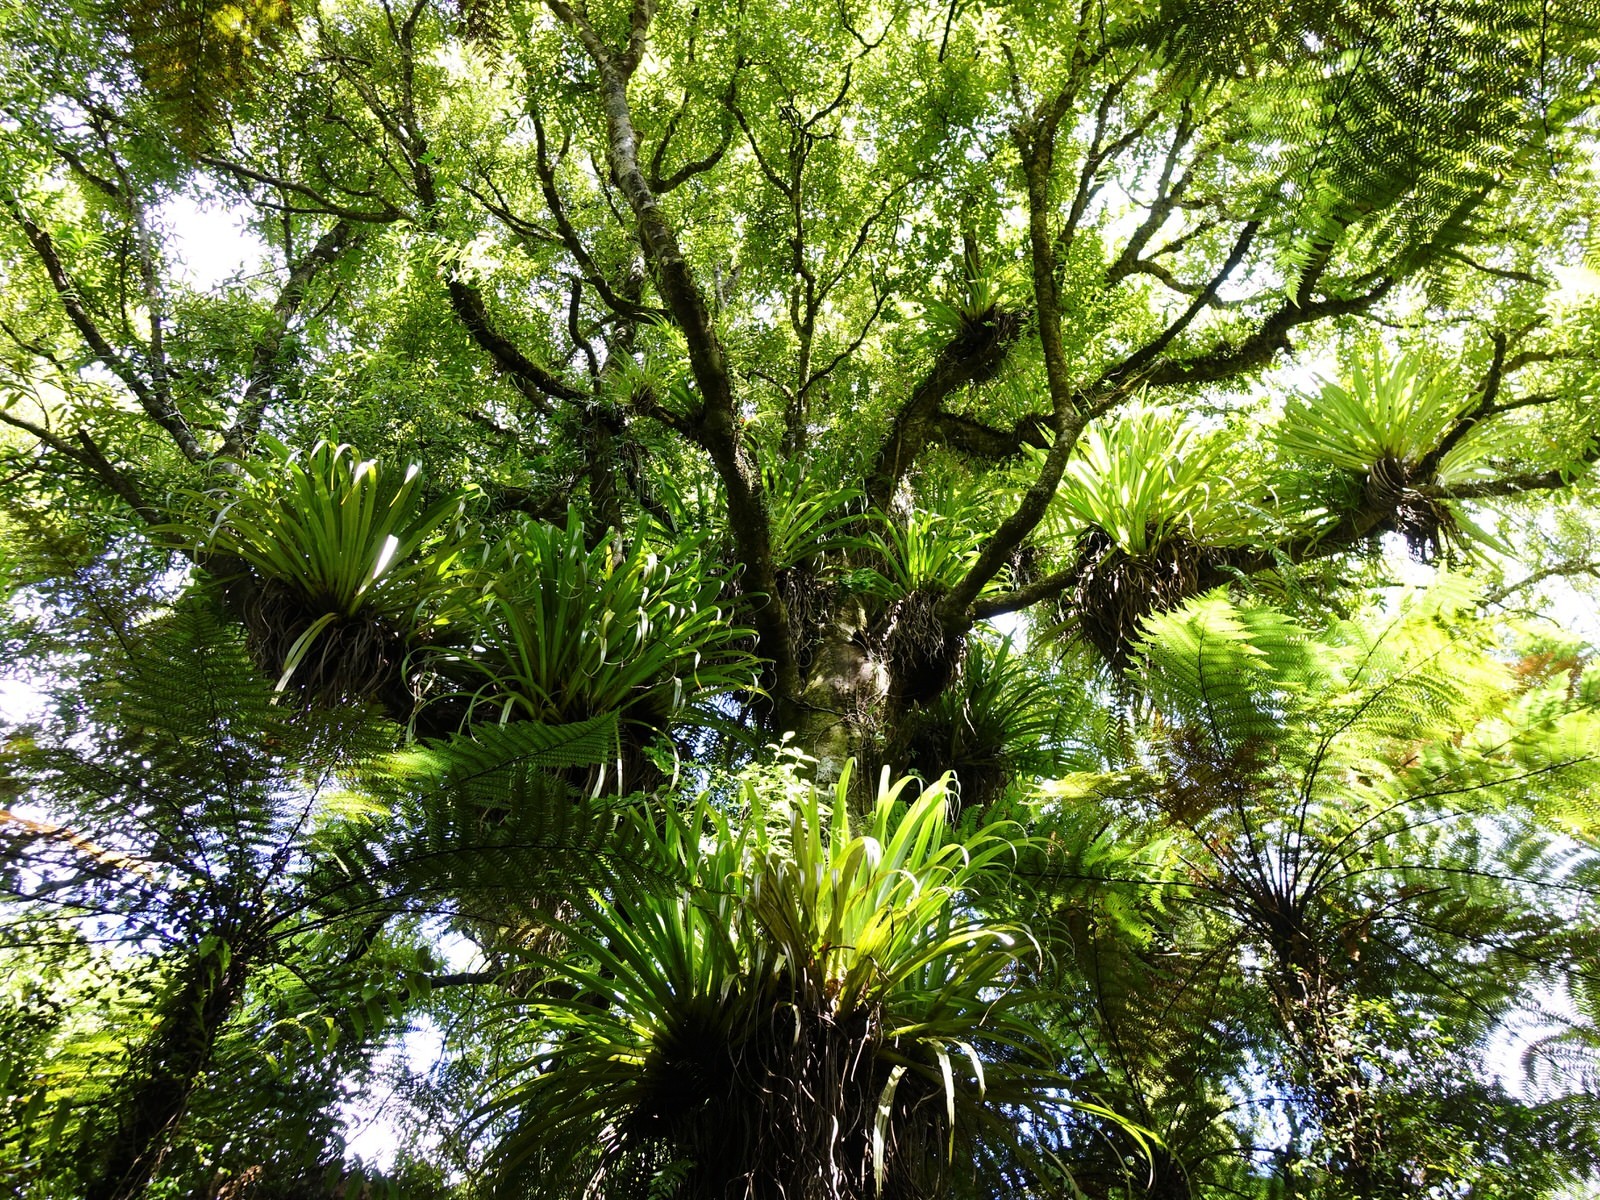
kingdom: Plantae
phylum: Tracheophyta
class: Liliopsida
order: Asparagales
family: Asteliaceae
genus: Astelia
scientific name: Astelia hastata
